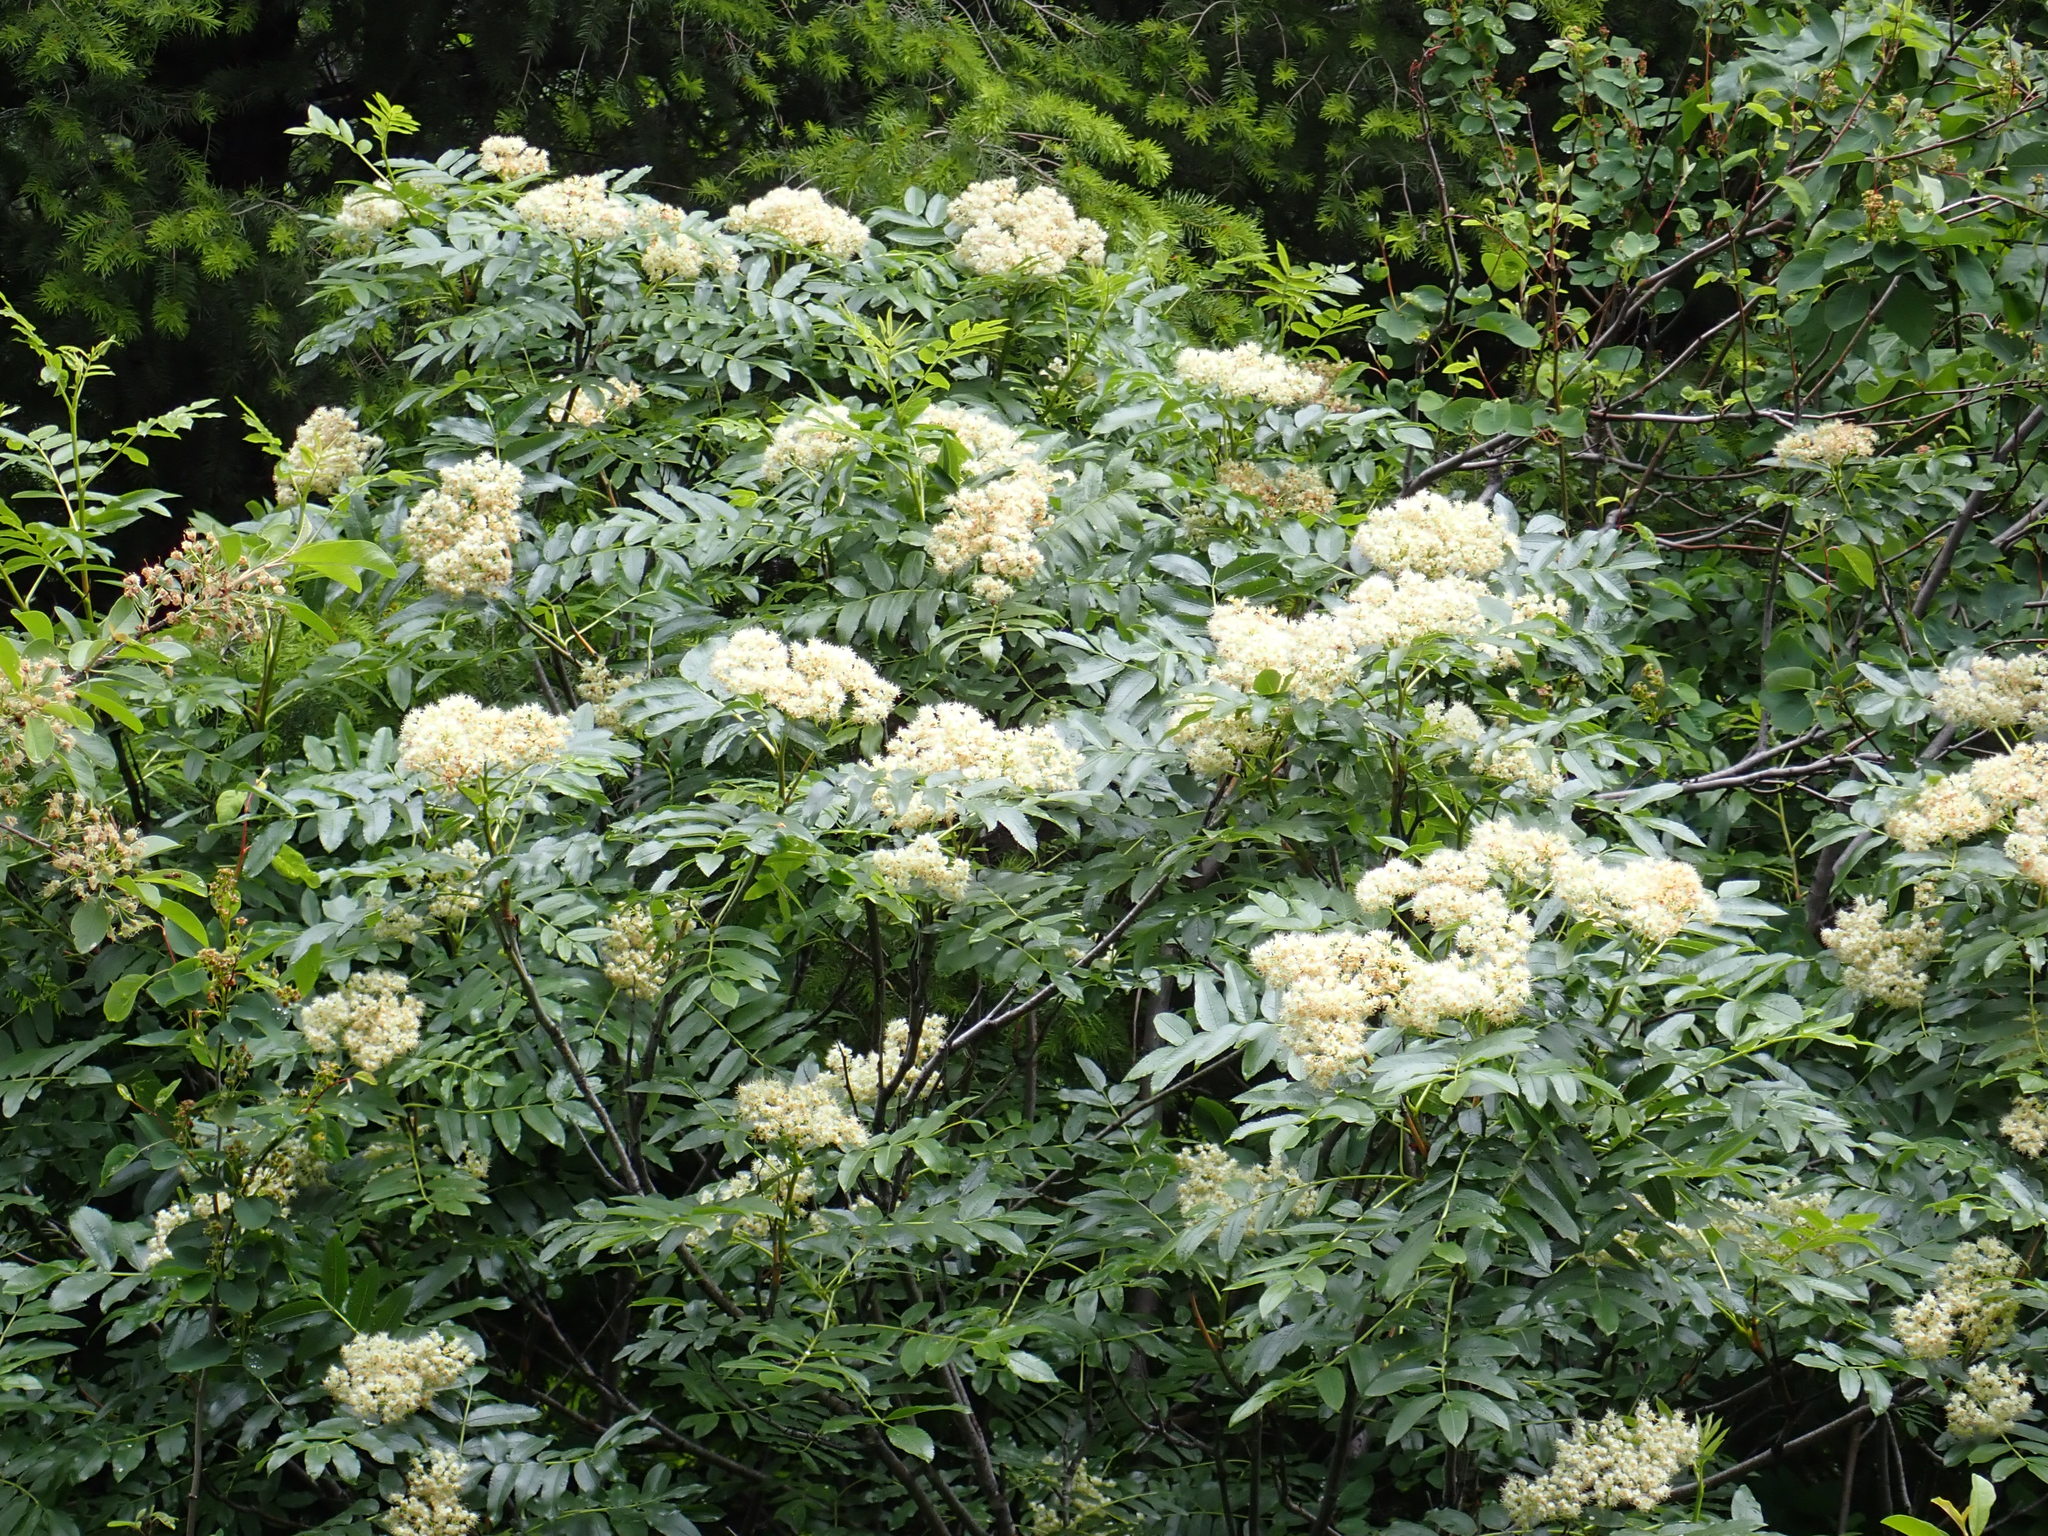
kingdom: Plantae
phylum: Tracheophyta
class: Magnoliopsida
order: Rosales
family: Rosaceae
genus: Sorbus
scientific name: Sorbus scopulina
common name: Greene's mountain-ash
